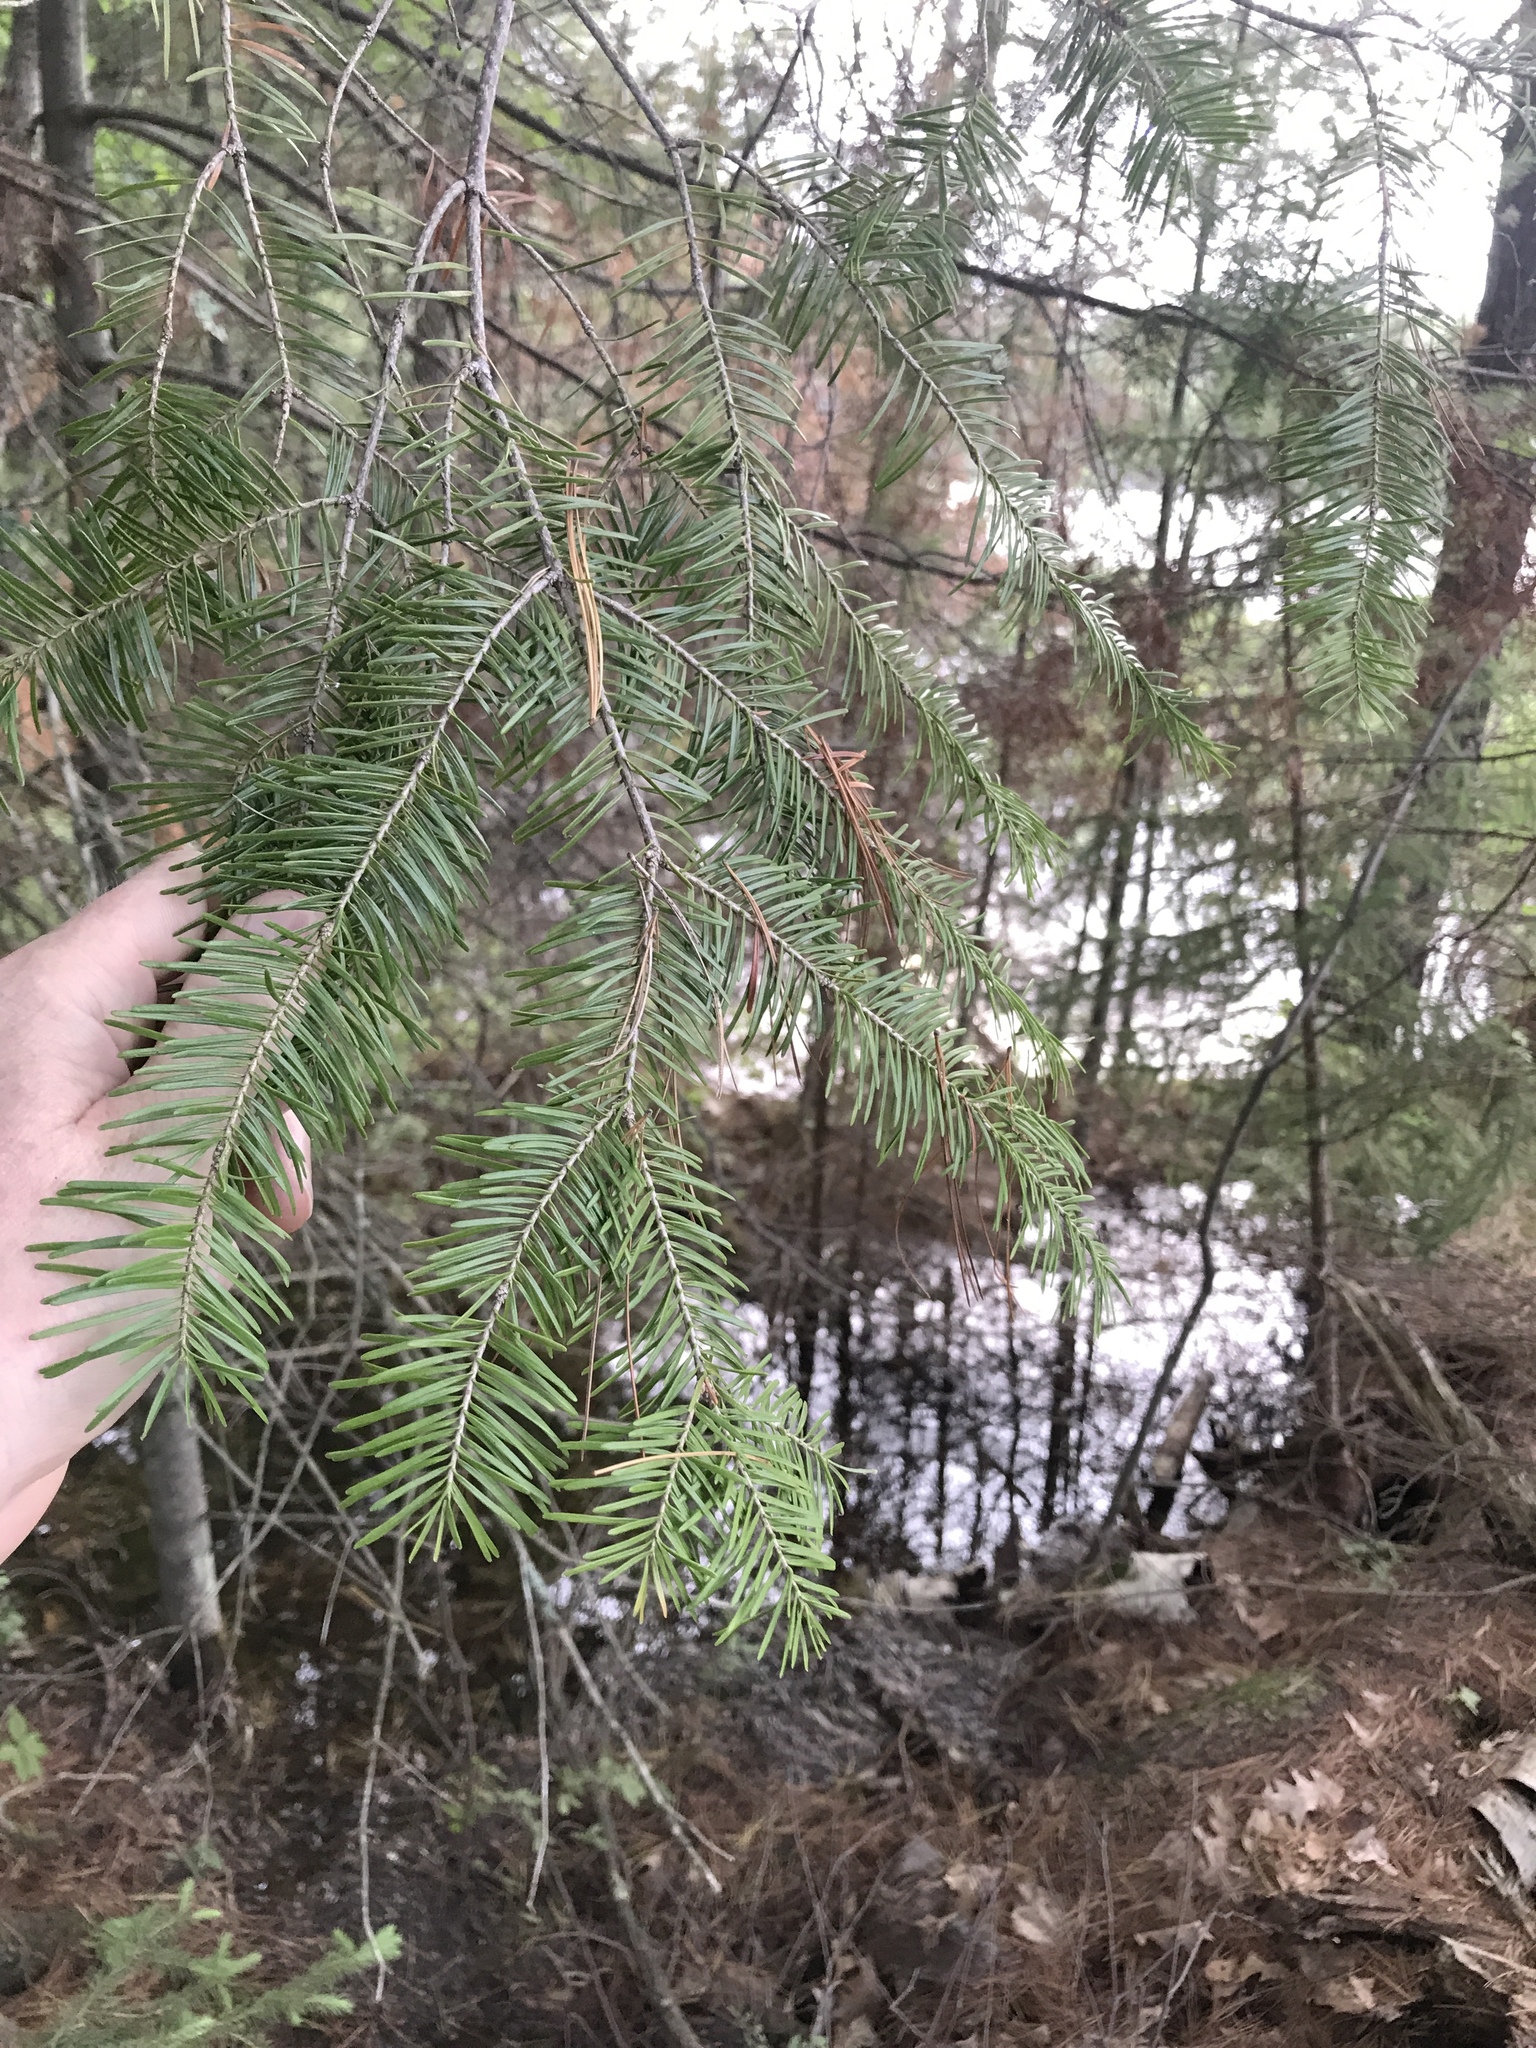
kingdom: Plantae
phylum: Tracheophyta
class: Pinopsida
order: Pinales
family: Pinaceae
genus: Abies
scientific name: Abies balsamea
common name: Balsam fir
